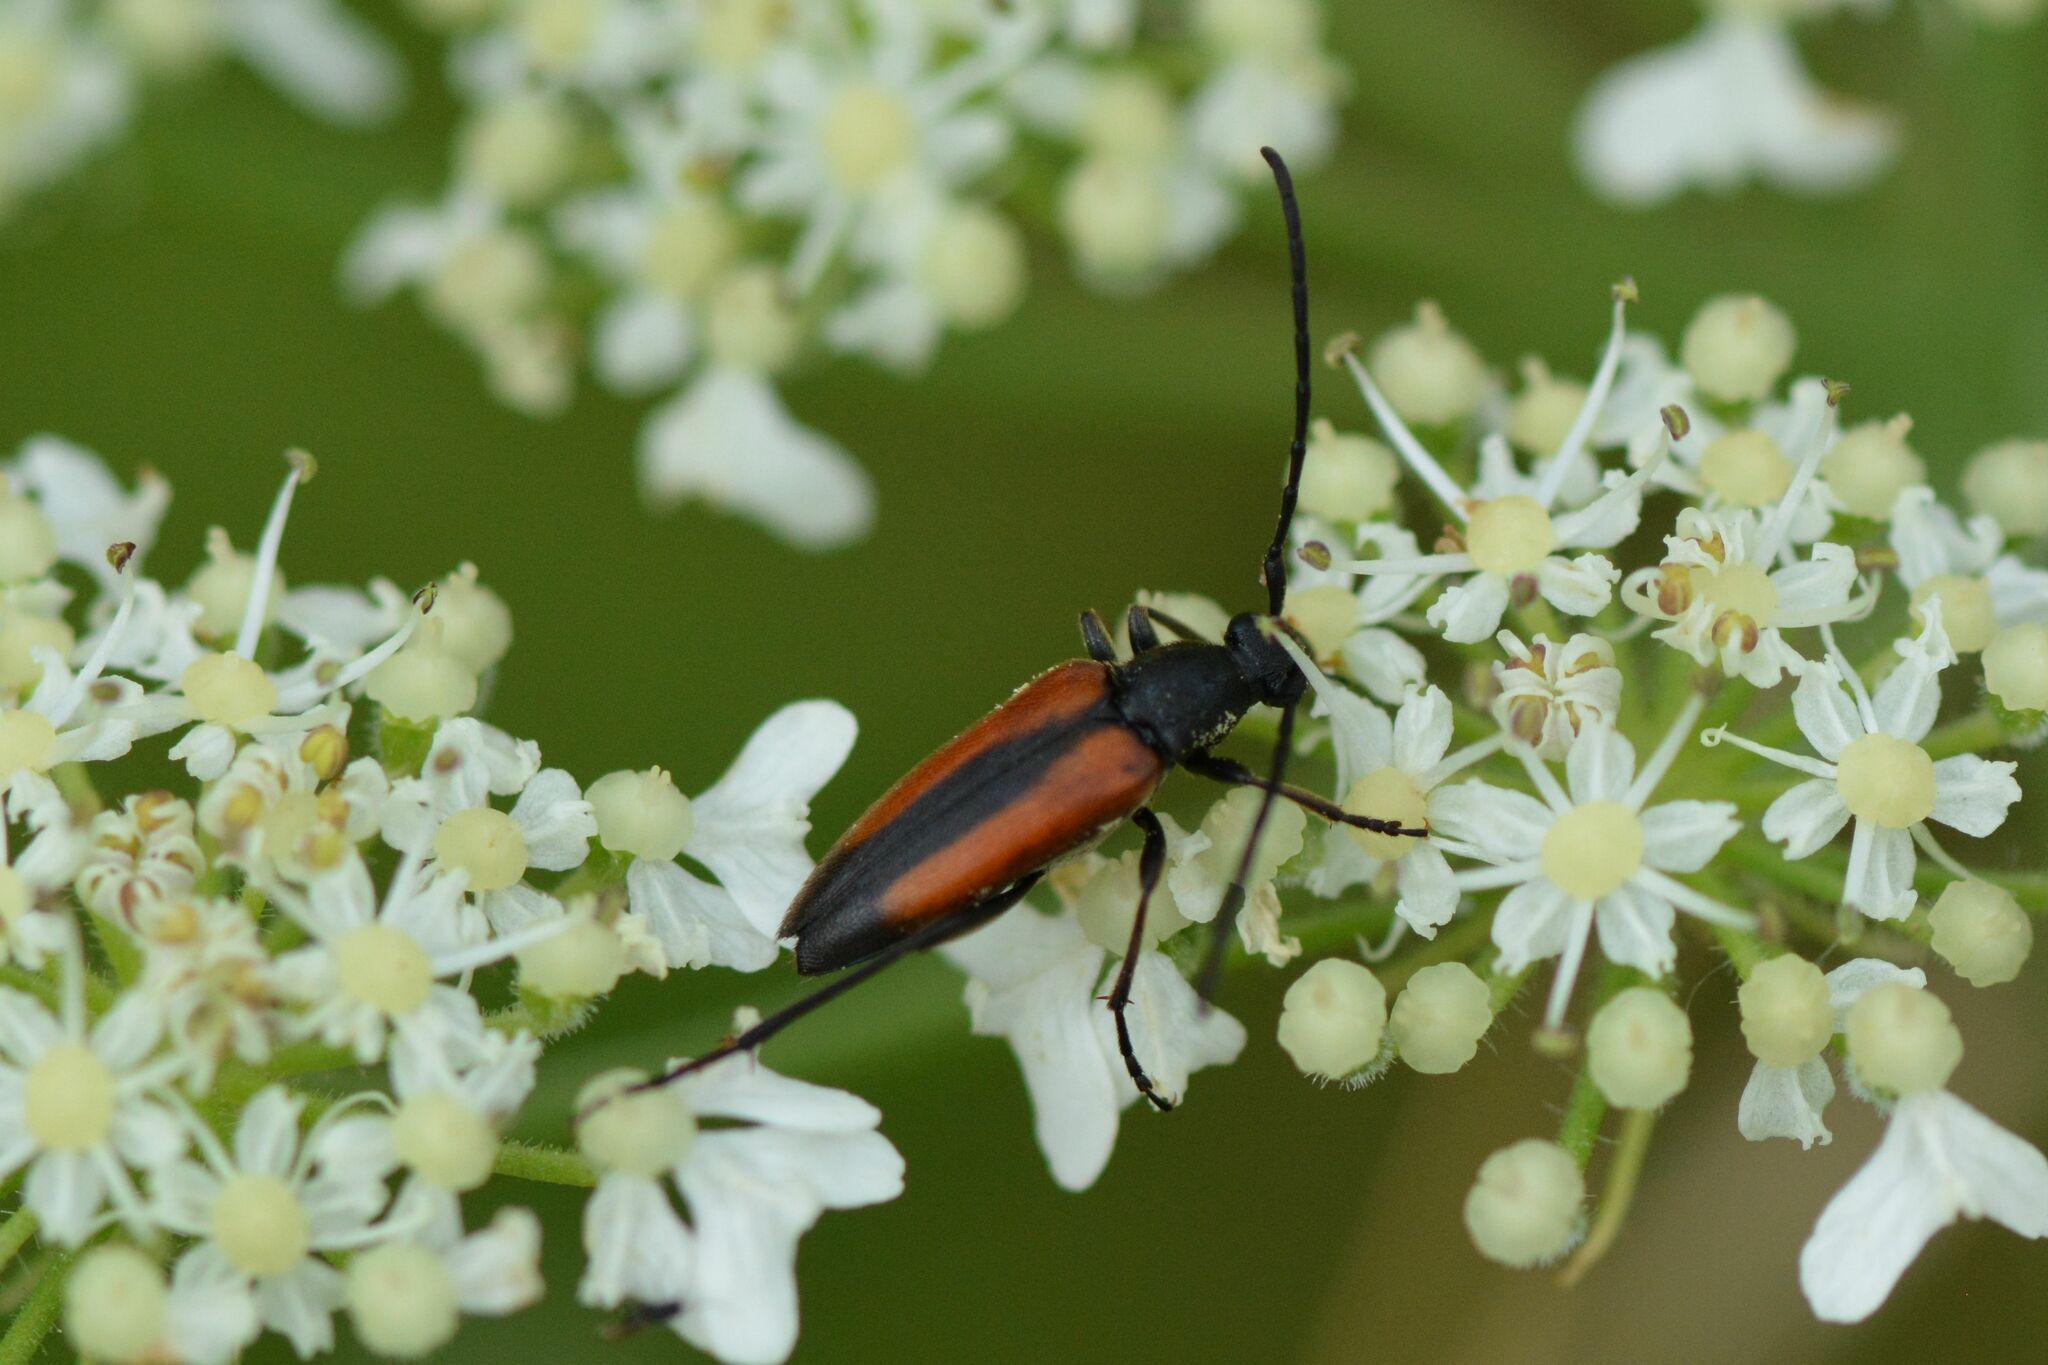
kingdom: Animalia
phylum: Arthropoda
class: Insecta
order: Coleoptera
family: Cerambycidae
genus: Stenurella
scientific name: Stenurella melanura
